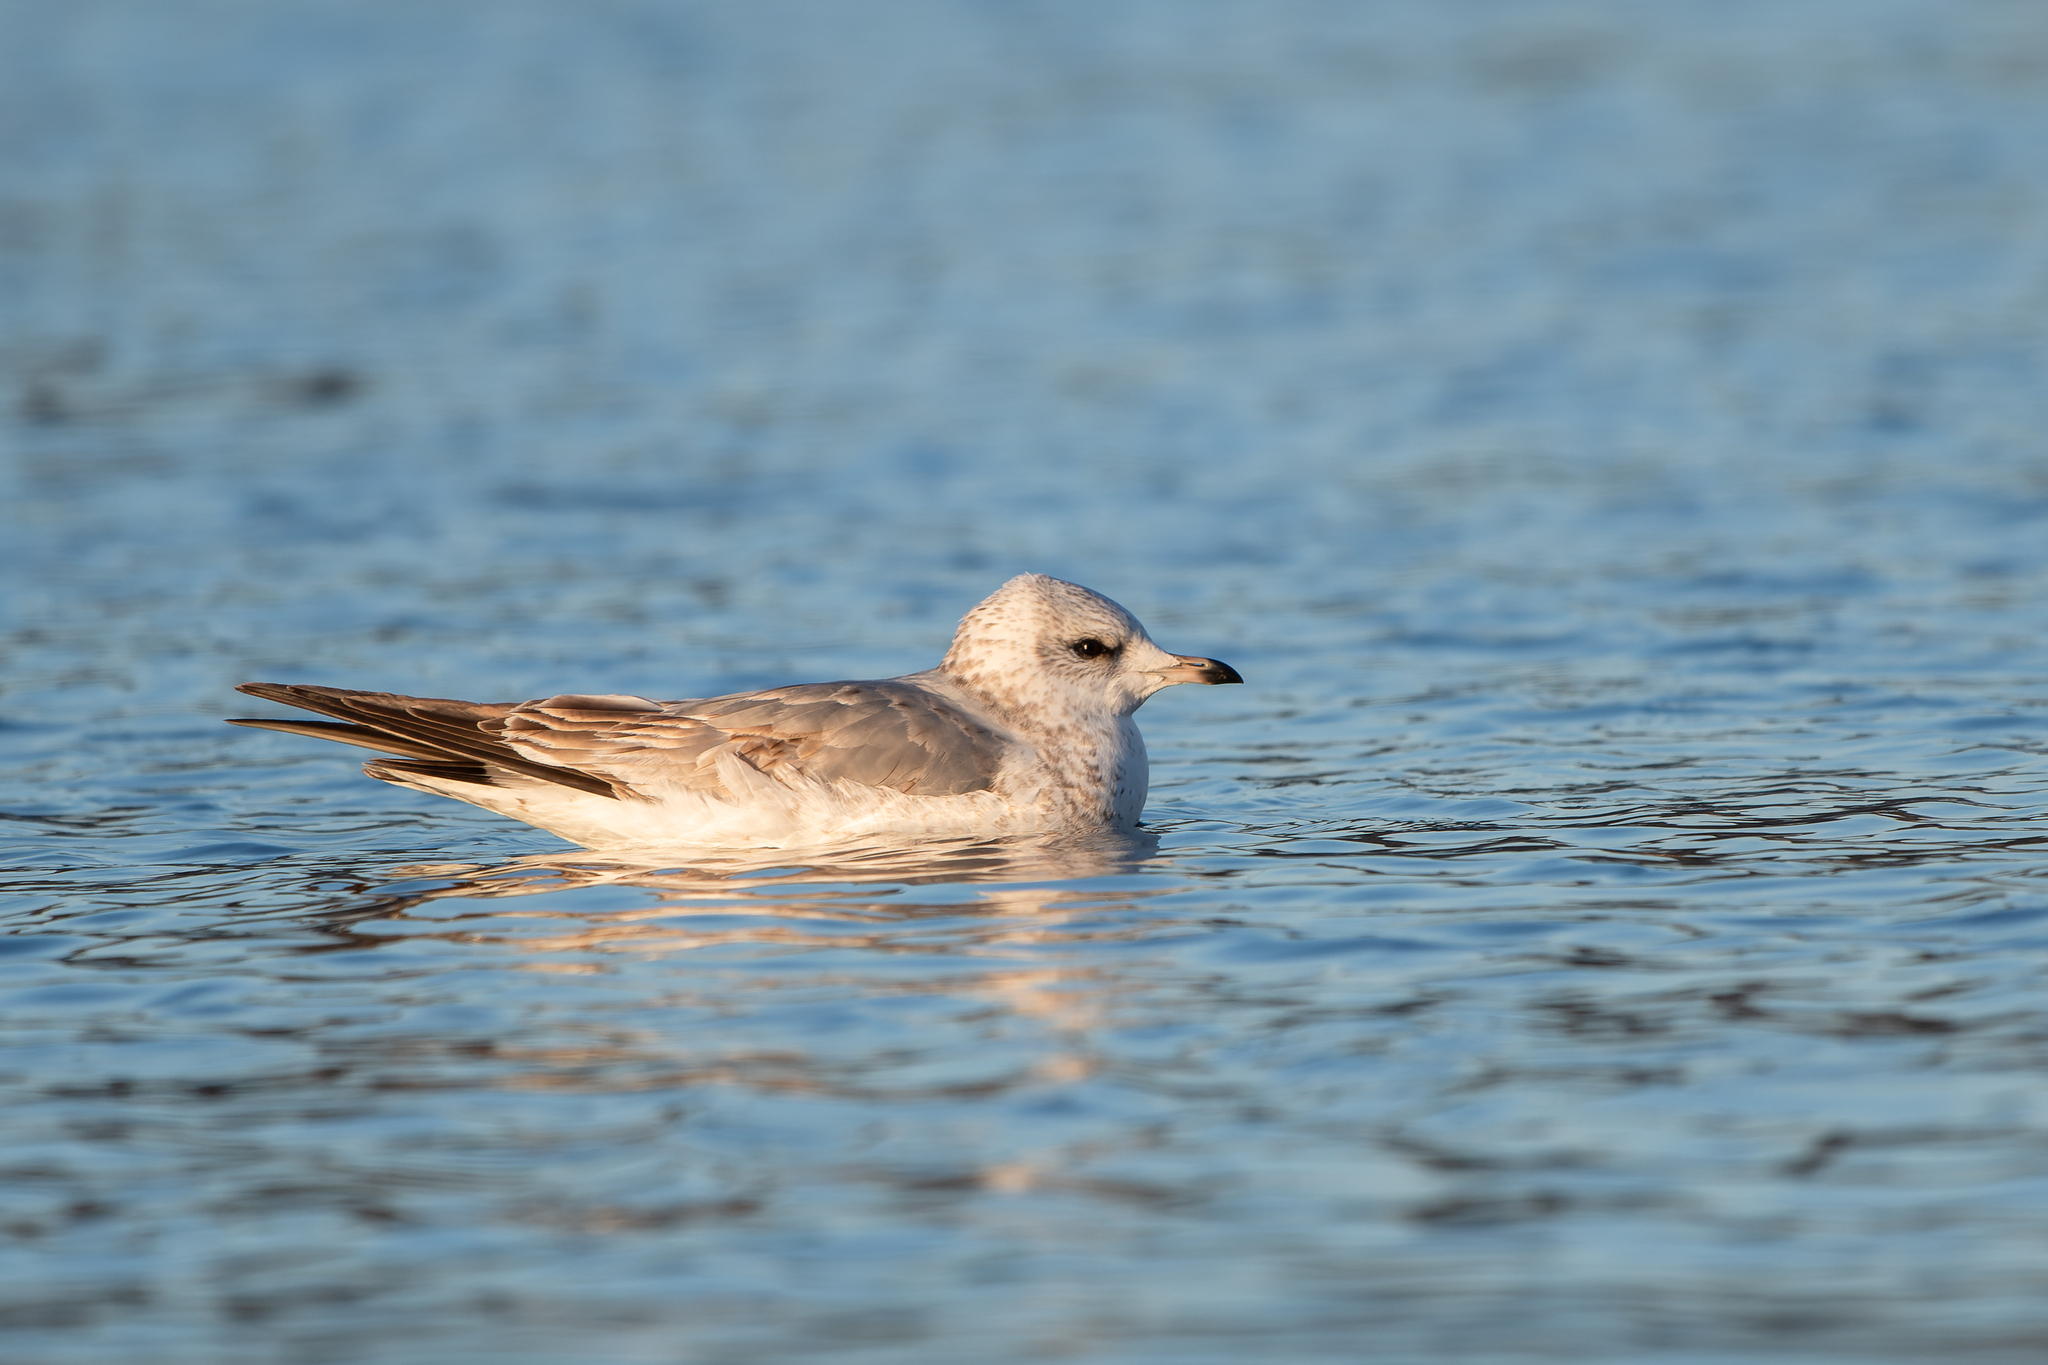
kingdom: Animalia
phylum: Chordata
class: Aves
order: Charadriiformes
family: Laridae
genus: Larus
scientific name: Larus canus
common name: Mew gull
